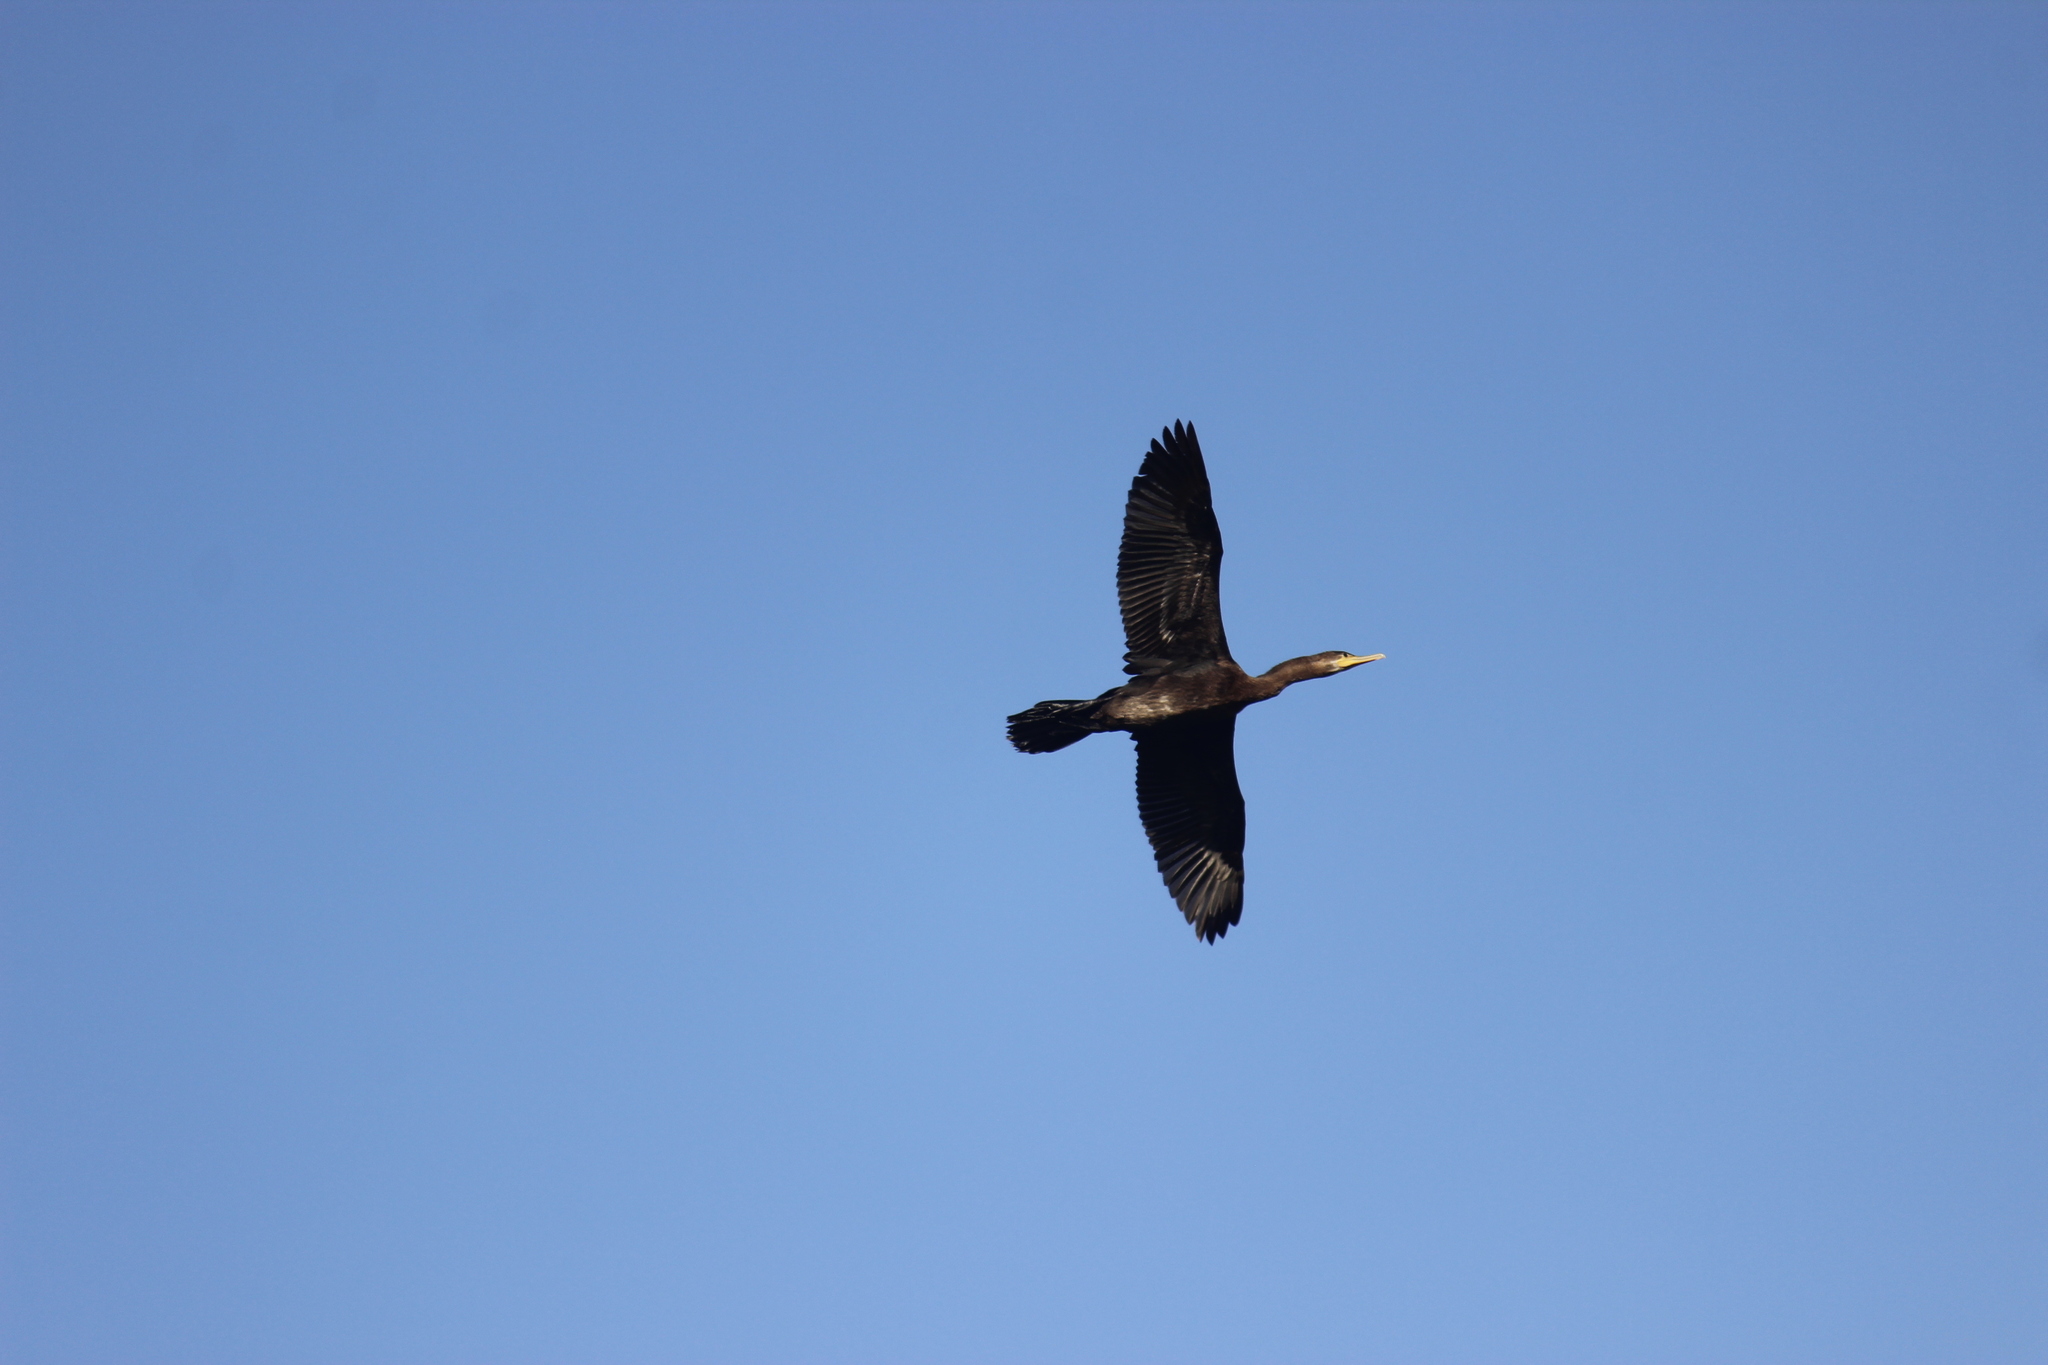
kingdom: Animalia
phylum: Chordata
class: Aves
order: Suliformes
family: Phalacrocoracidae
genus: Phalacrocorax
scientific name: Phalacrocorax brasilianus
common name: Neotropic cormorant
